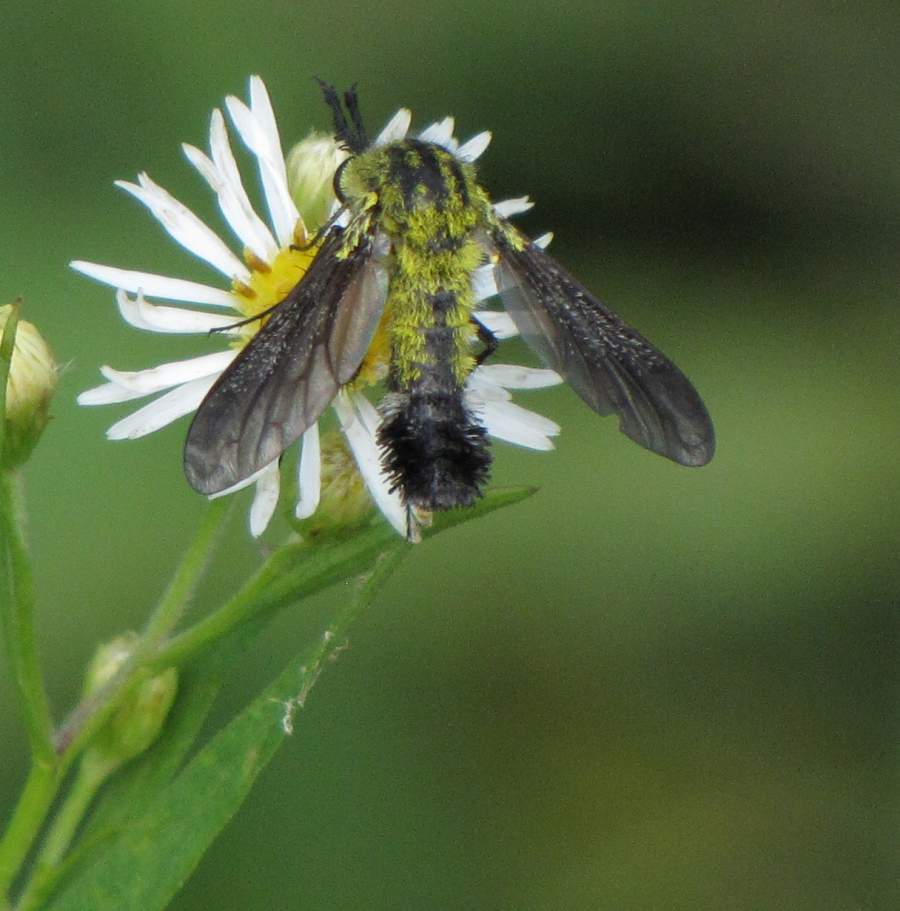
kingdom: Animalia
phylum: Arthropoda
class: Insecta
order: Diptera
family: Bombyliidae
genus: Lepidophora
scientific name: Lepidophora lutea
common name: Hunchback bee fly
